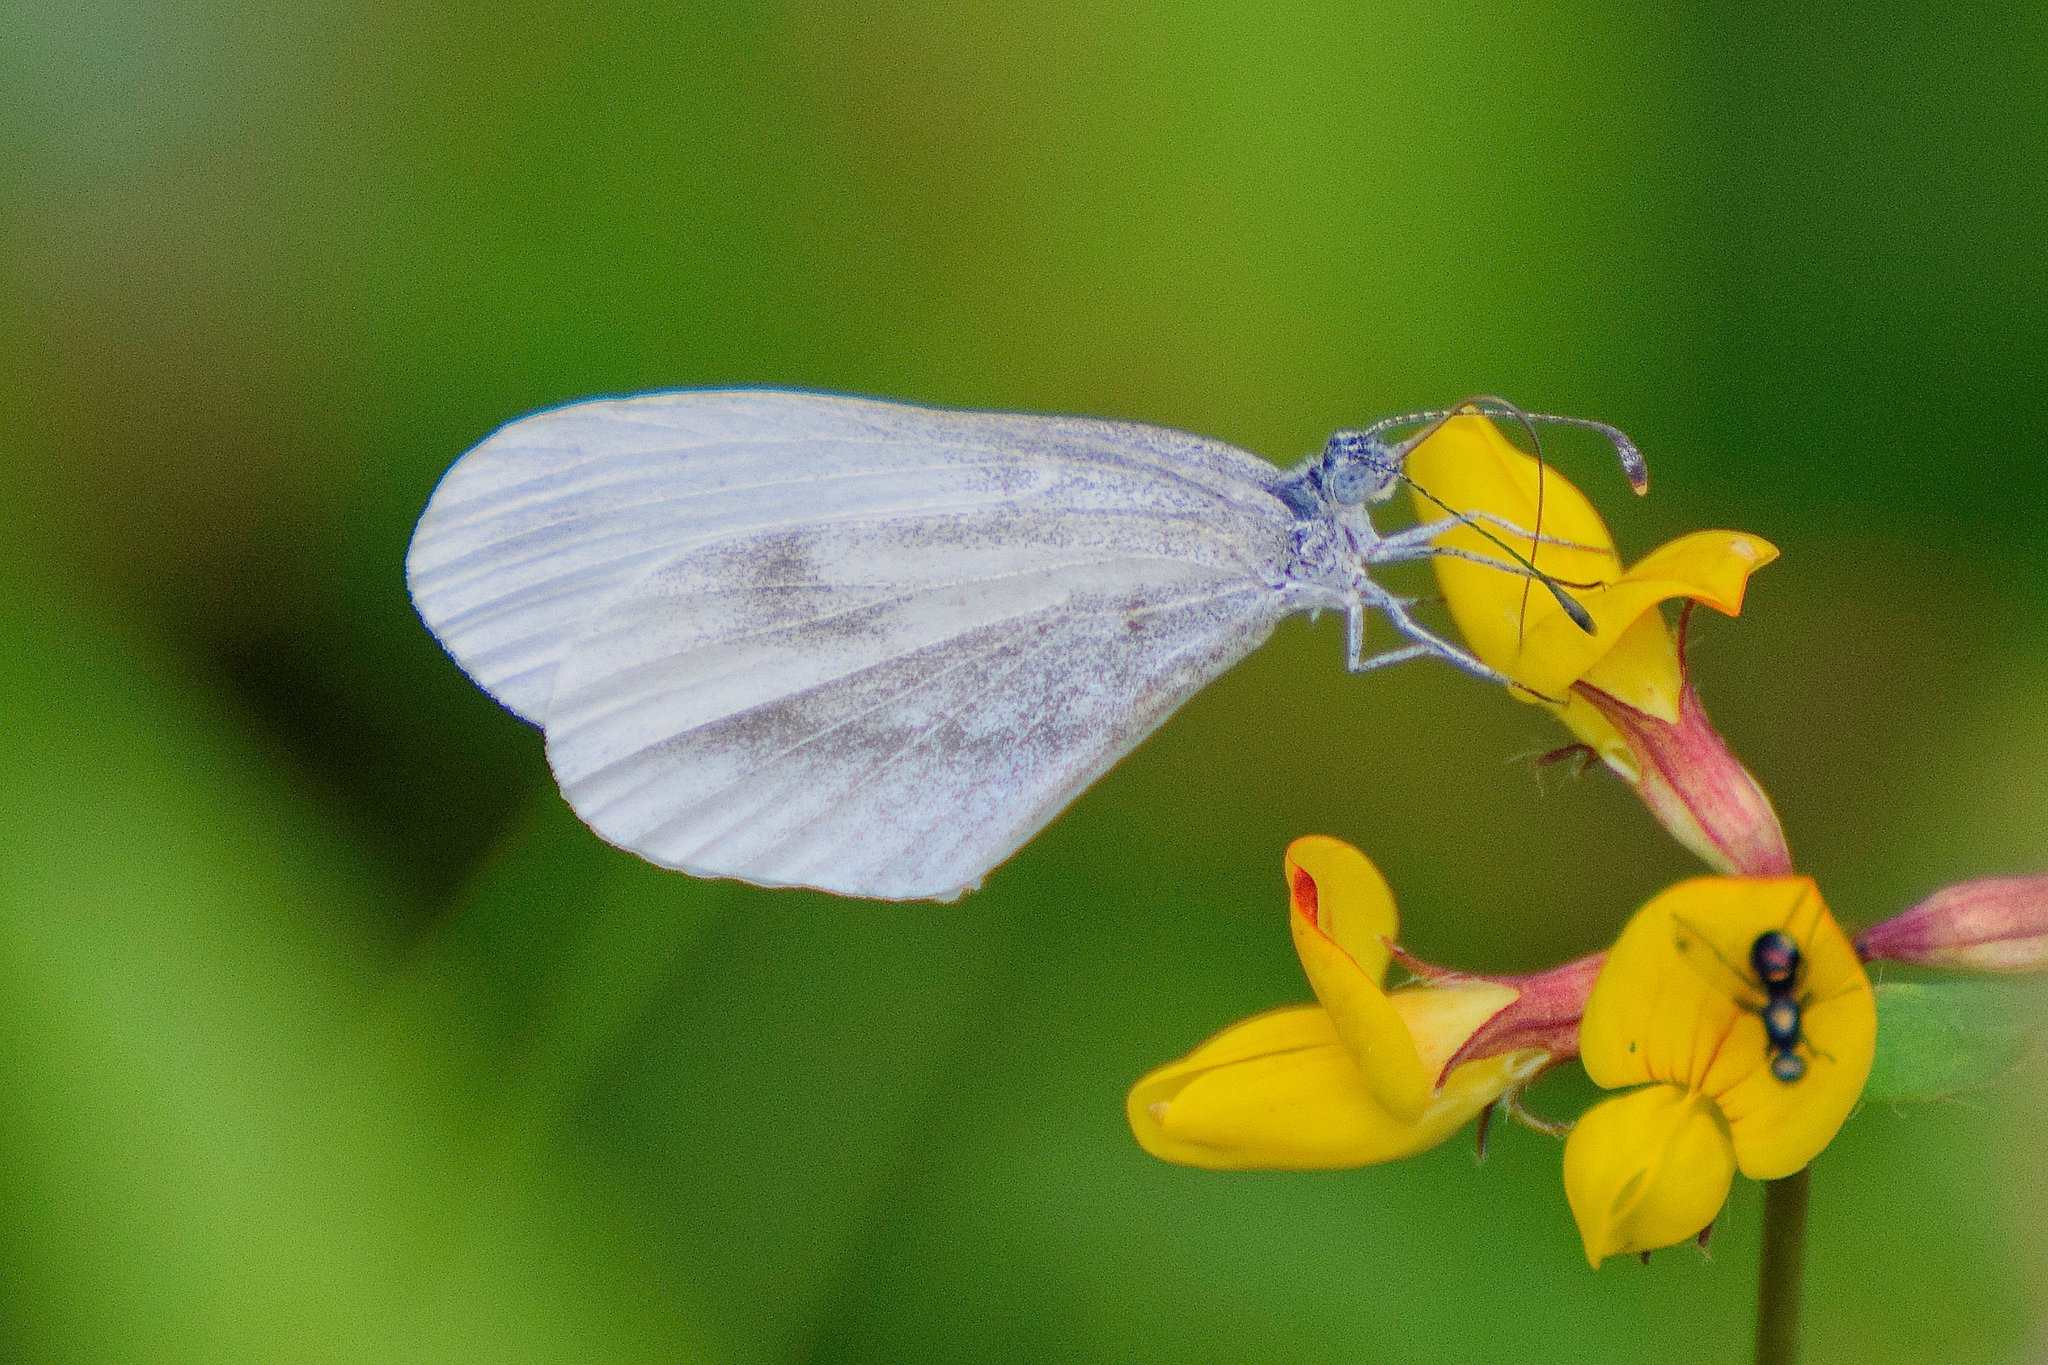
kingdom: Animalia
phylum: Arthropoda
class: Insecta
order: Lepidoptera
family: Pieridae
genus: Leptidea
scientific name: Leptidea sinapis
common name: Wood white
